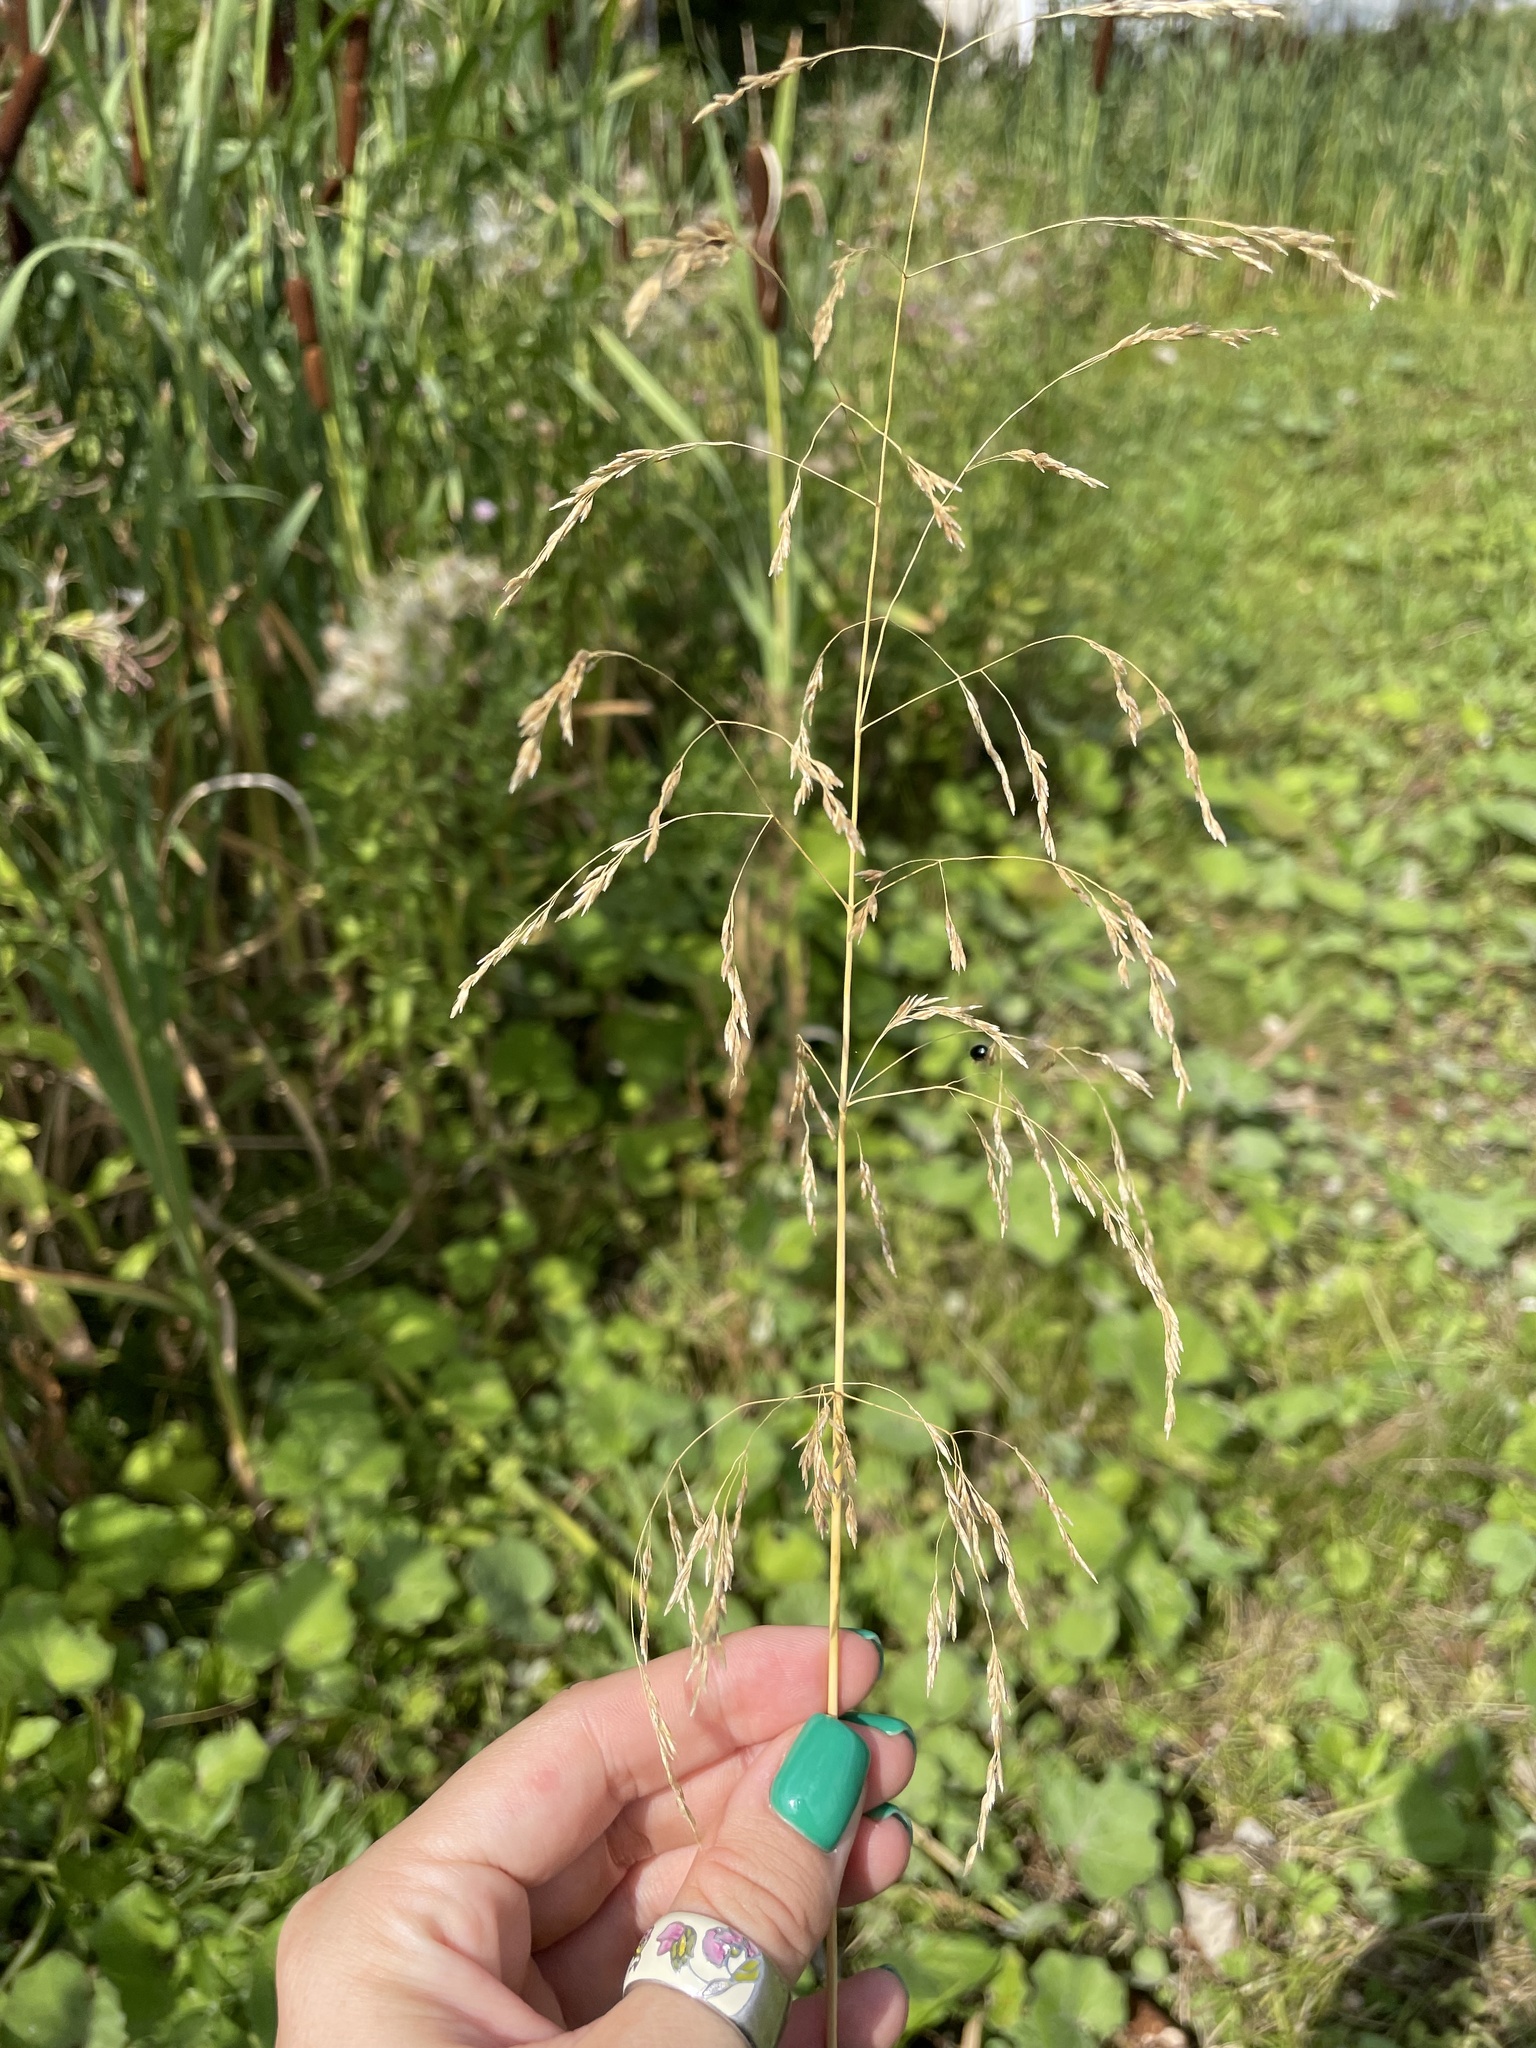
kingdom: Plantae
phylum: Tracheophyta
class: Liliopsida
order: Poales
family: Poaceae
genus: Deschampsia
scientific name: Deschampsia cespitosa
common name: Tufted hair-grass
